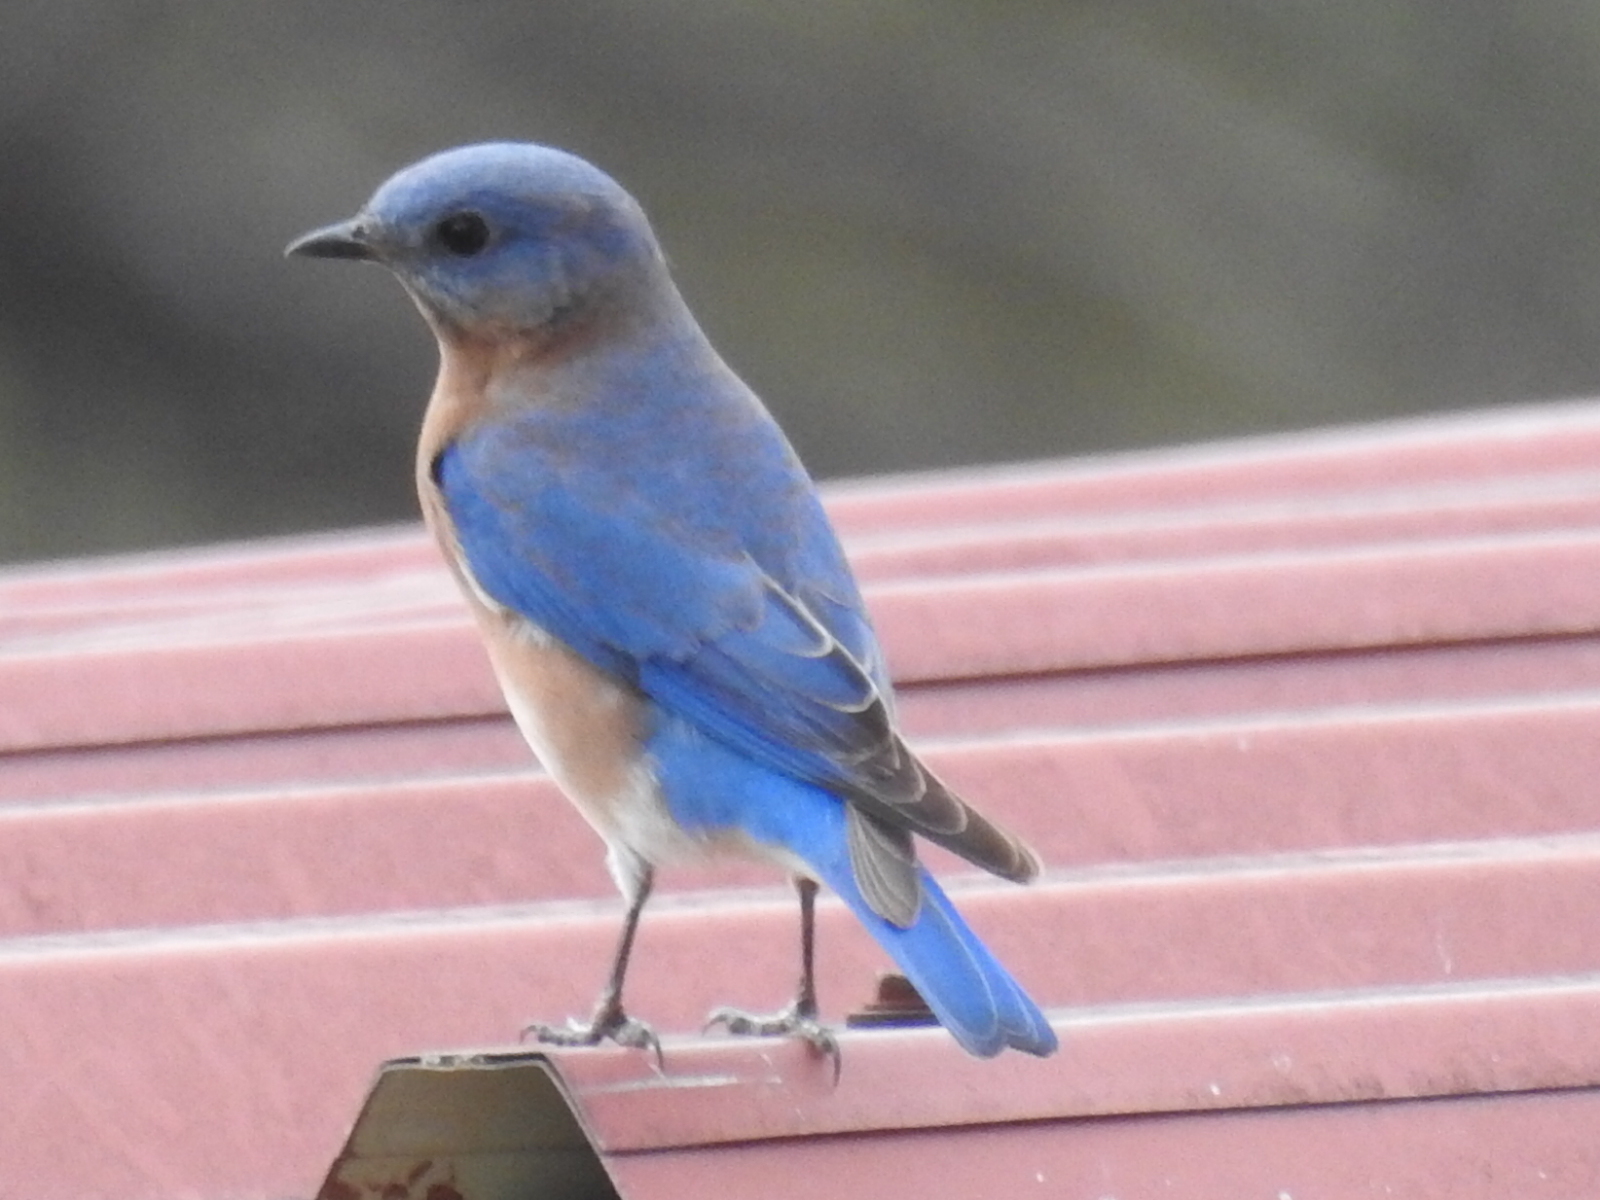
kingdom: Animalia
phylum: Chordata
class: Aves
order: Passeriformes
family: Turdidae
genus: Sialia
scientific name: Sialia sialis
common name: Eastern bluebird
